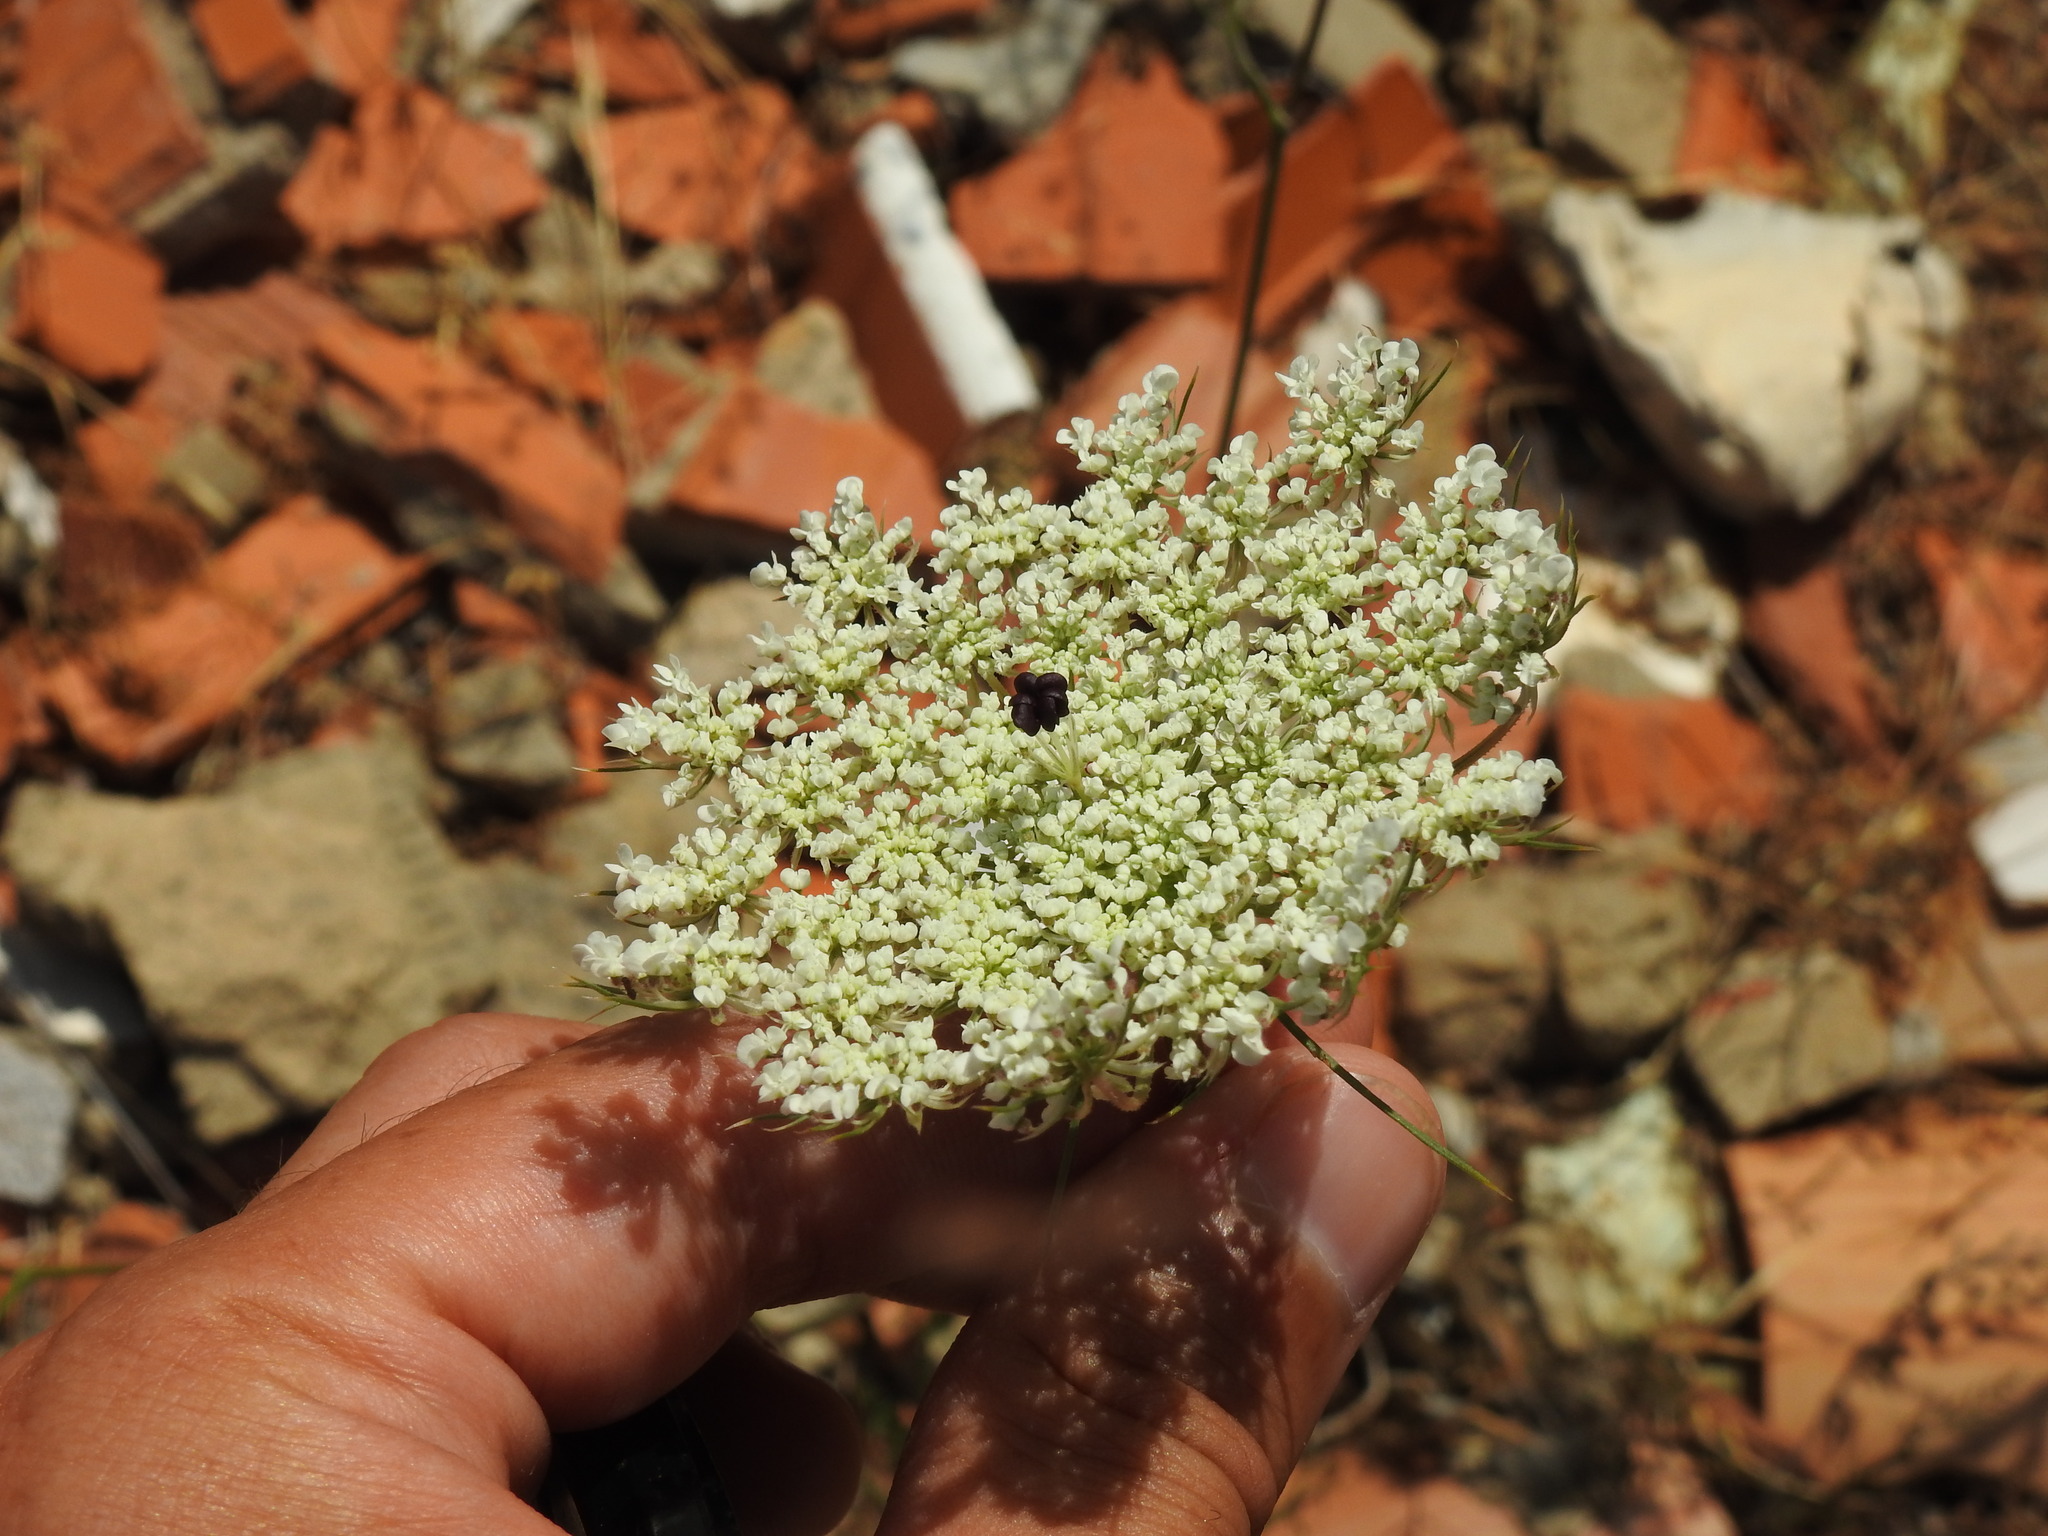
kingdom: Plantae
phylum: Tracheophyta
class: Magnoliopsida
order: Apiales
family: Apiaceae
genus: Daucus
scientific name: Daucus carota
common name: Wild carrot
